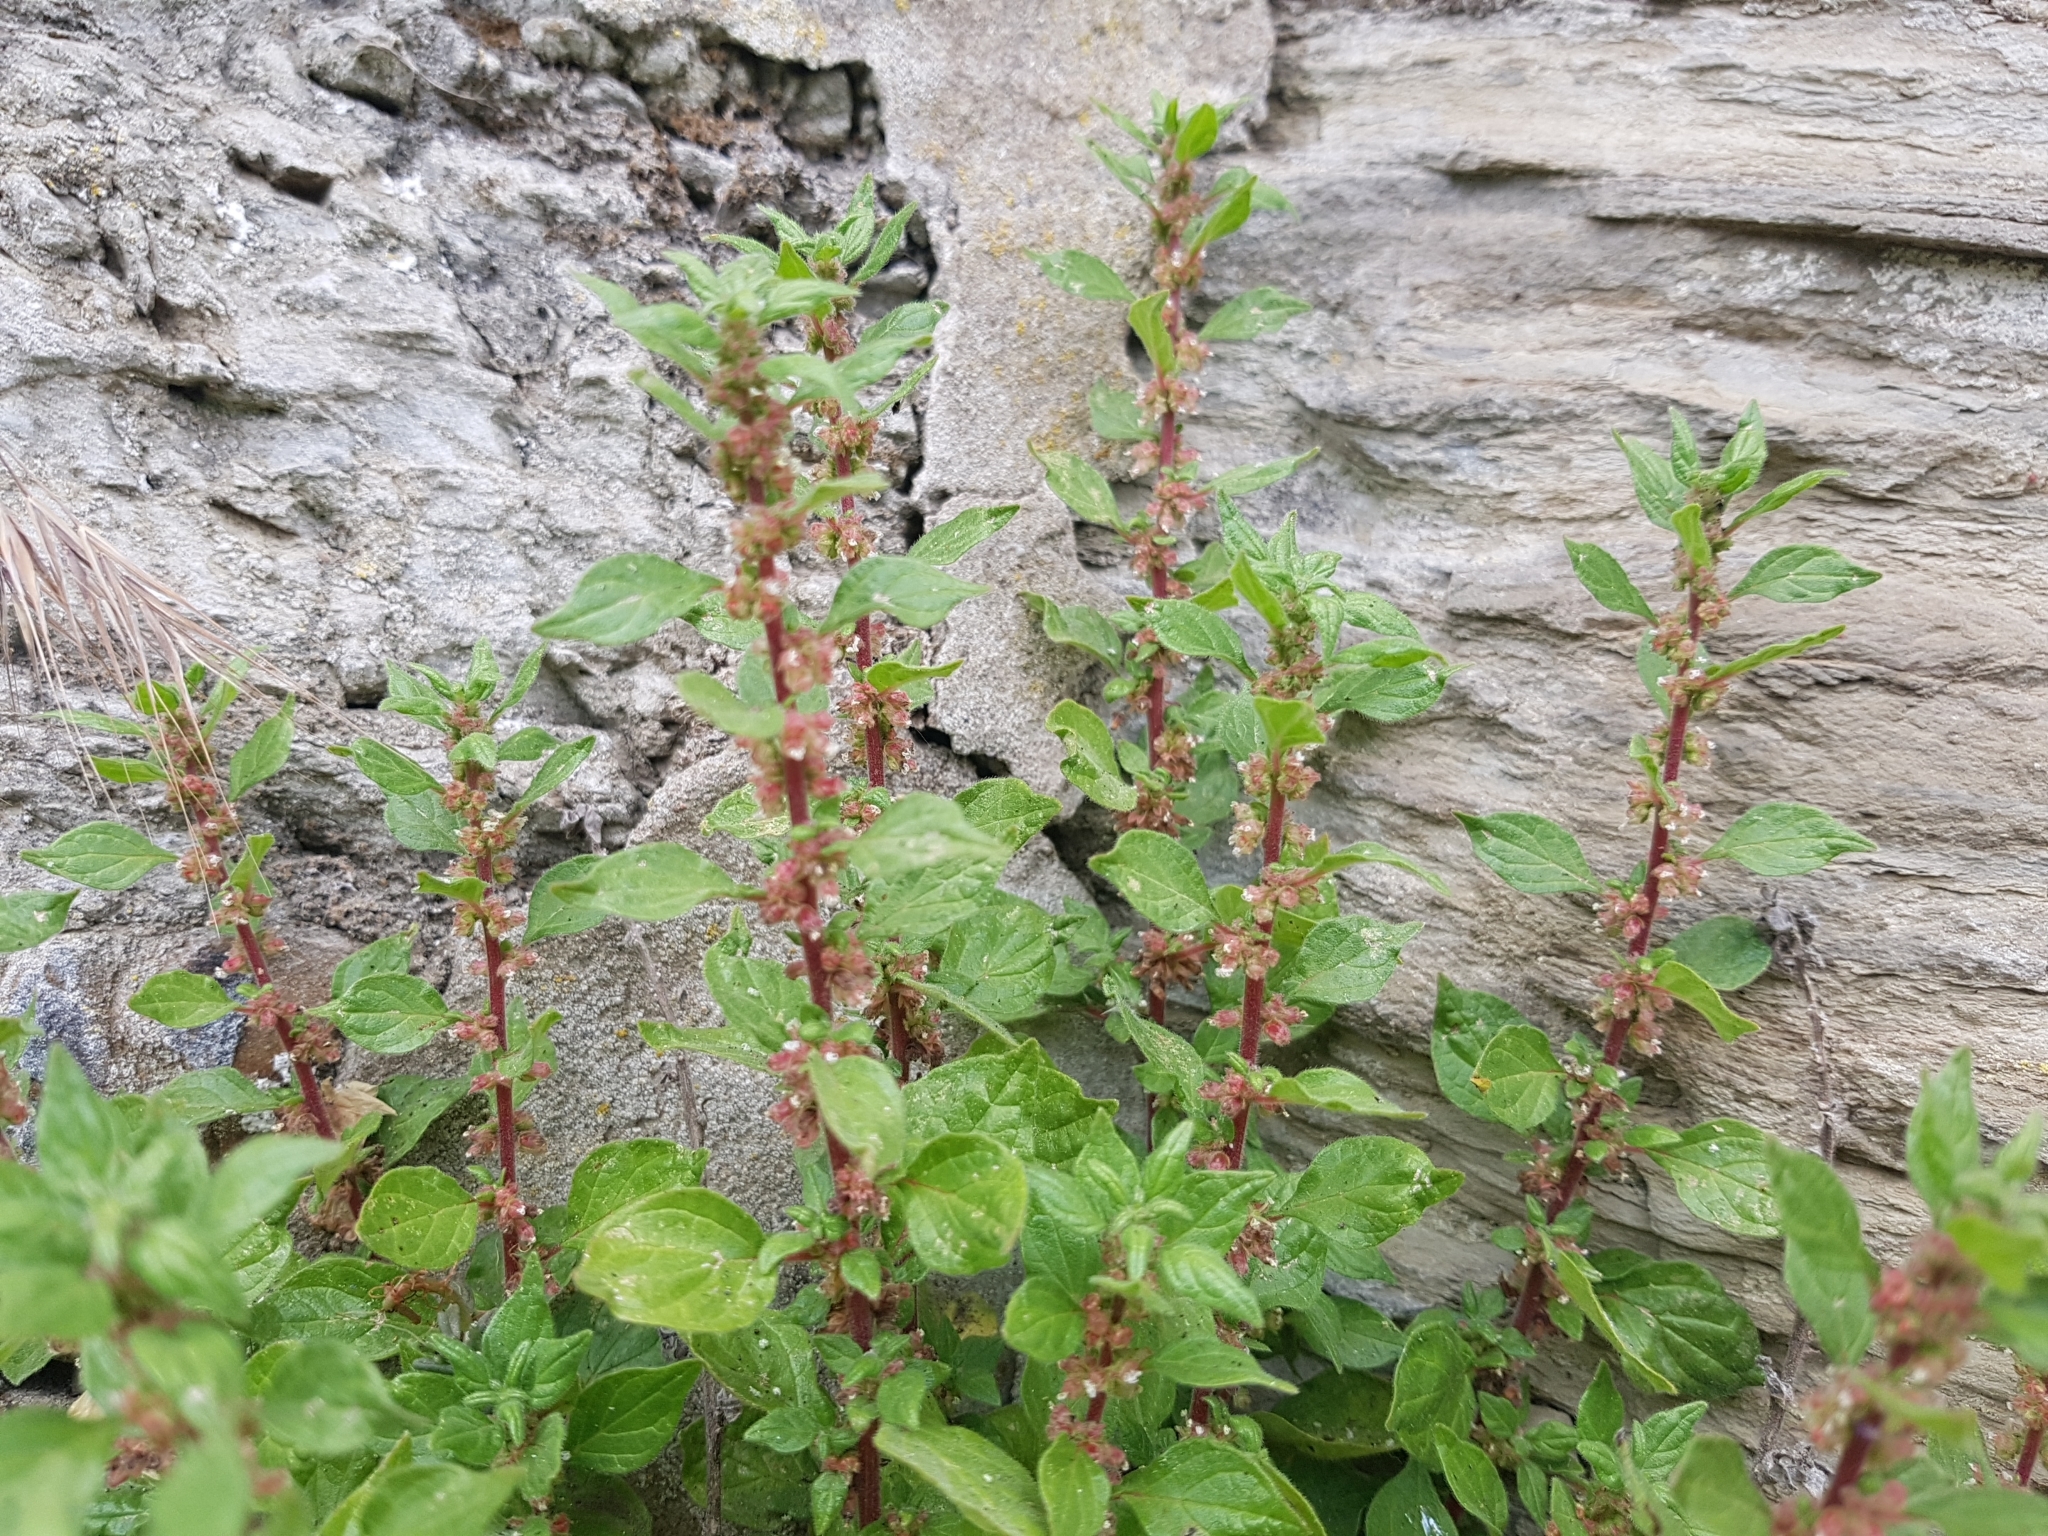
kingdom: Plantae
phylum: Tracheophyta
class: Magnoliopsida
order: Rosales
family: Urticaceae
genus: Parietaria
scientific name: Parietaria judaica
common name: Pellitory-of-the-wall
